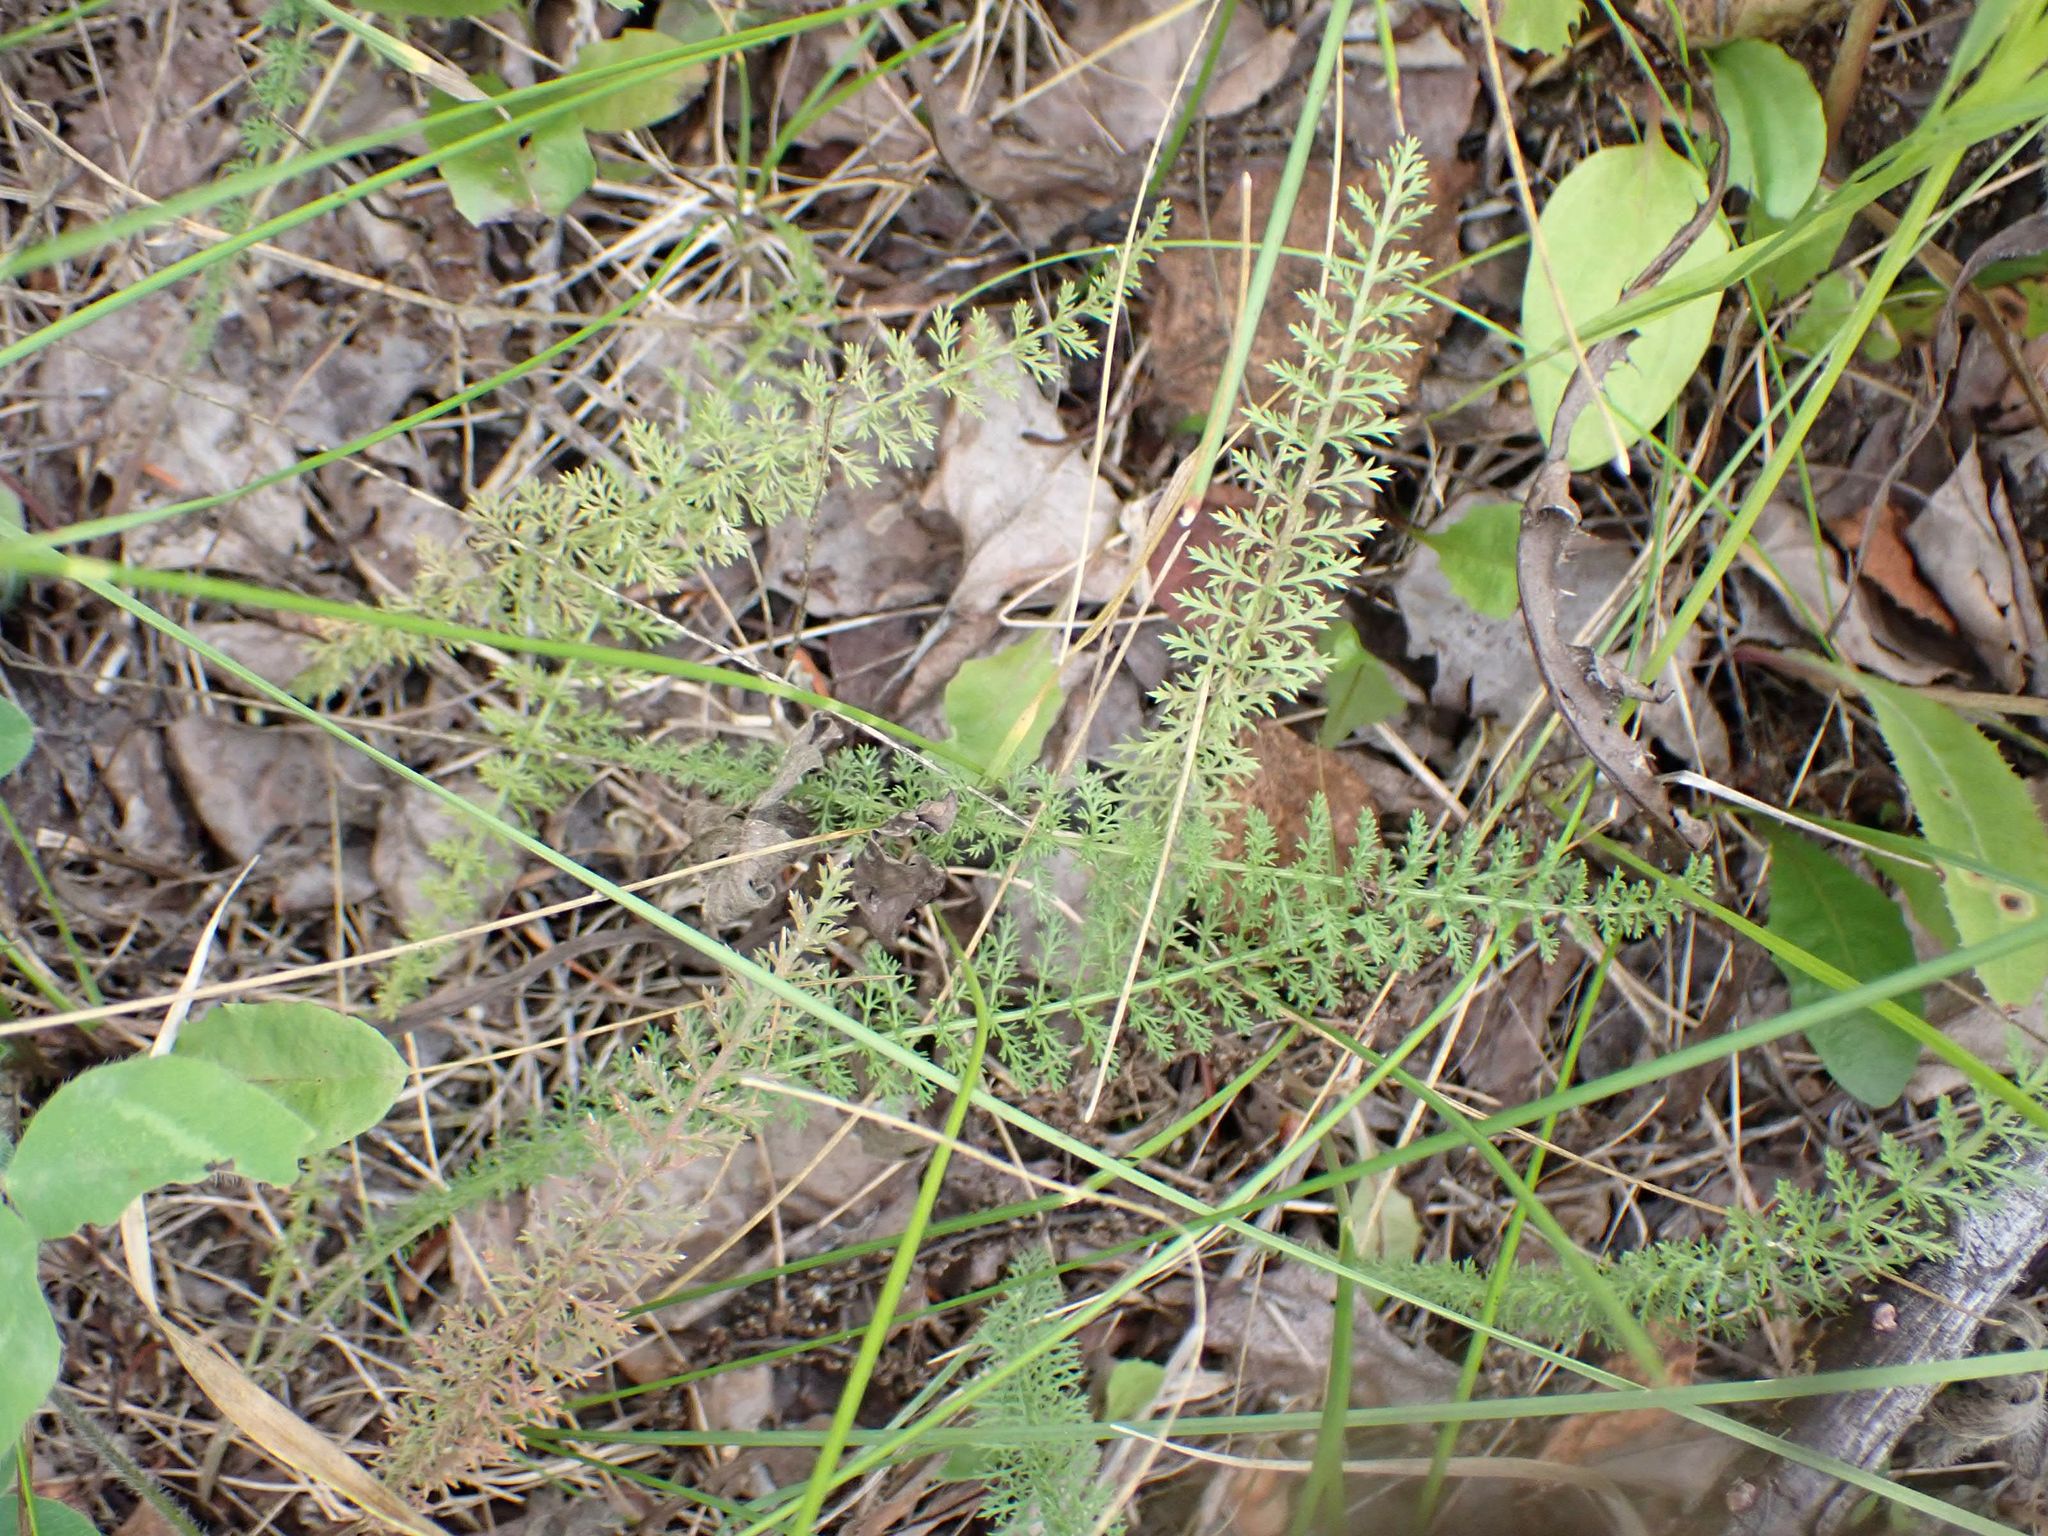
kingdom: Plantae
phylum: Tracheophyta
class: Magnoliopsida
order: Asterales
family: Asteraceae
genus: Achillea
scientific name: Achillea millefolium
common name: Yarrow
